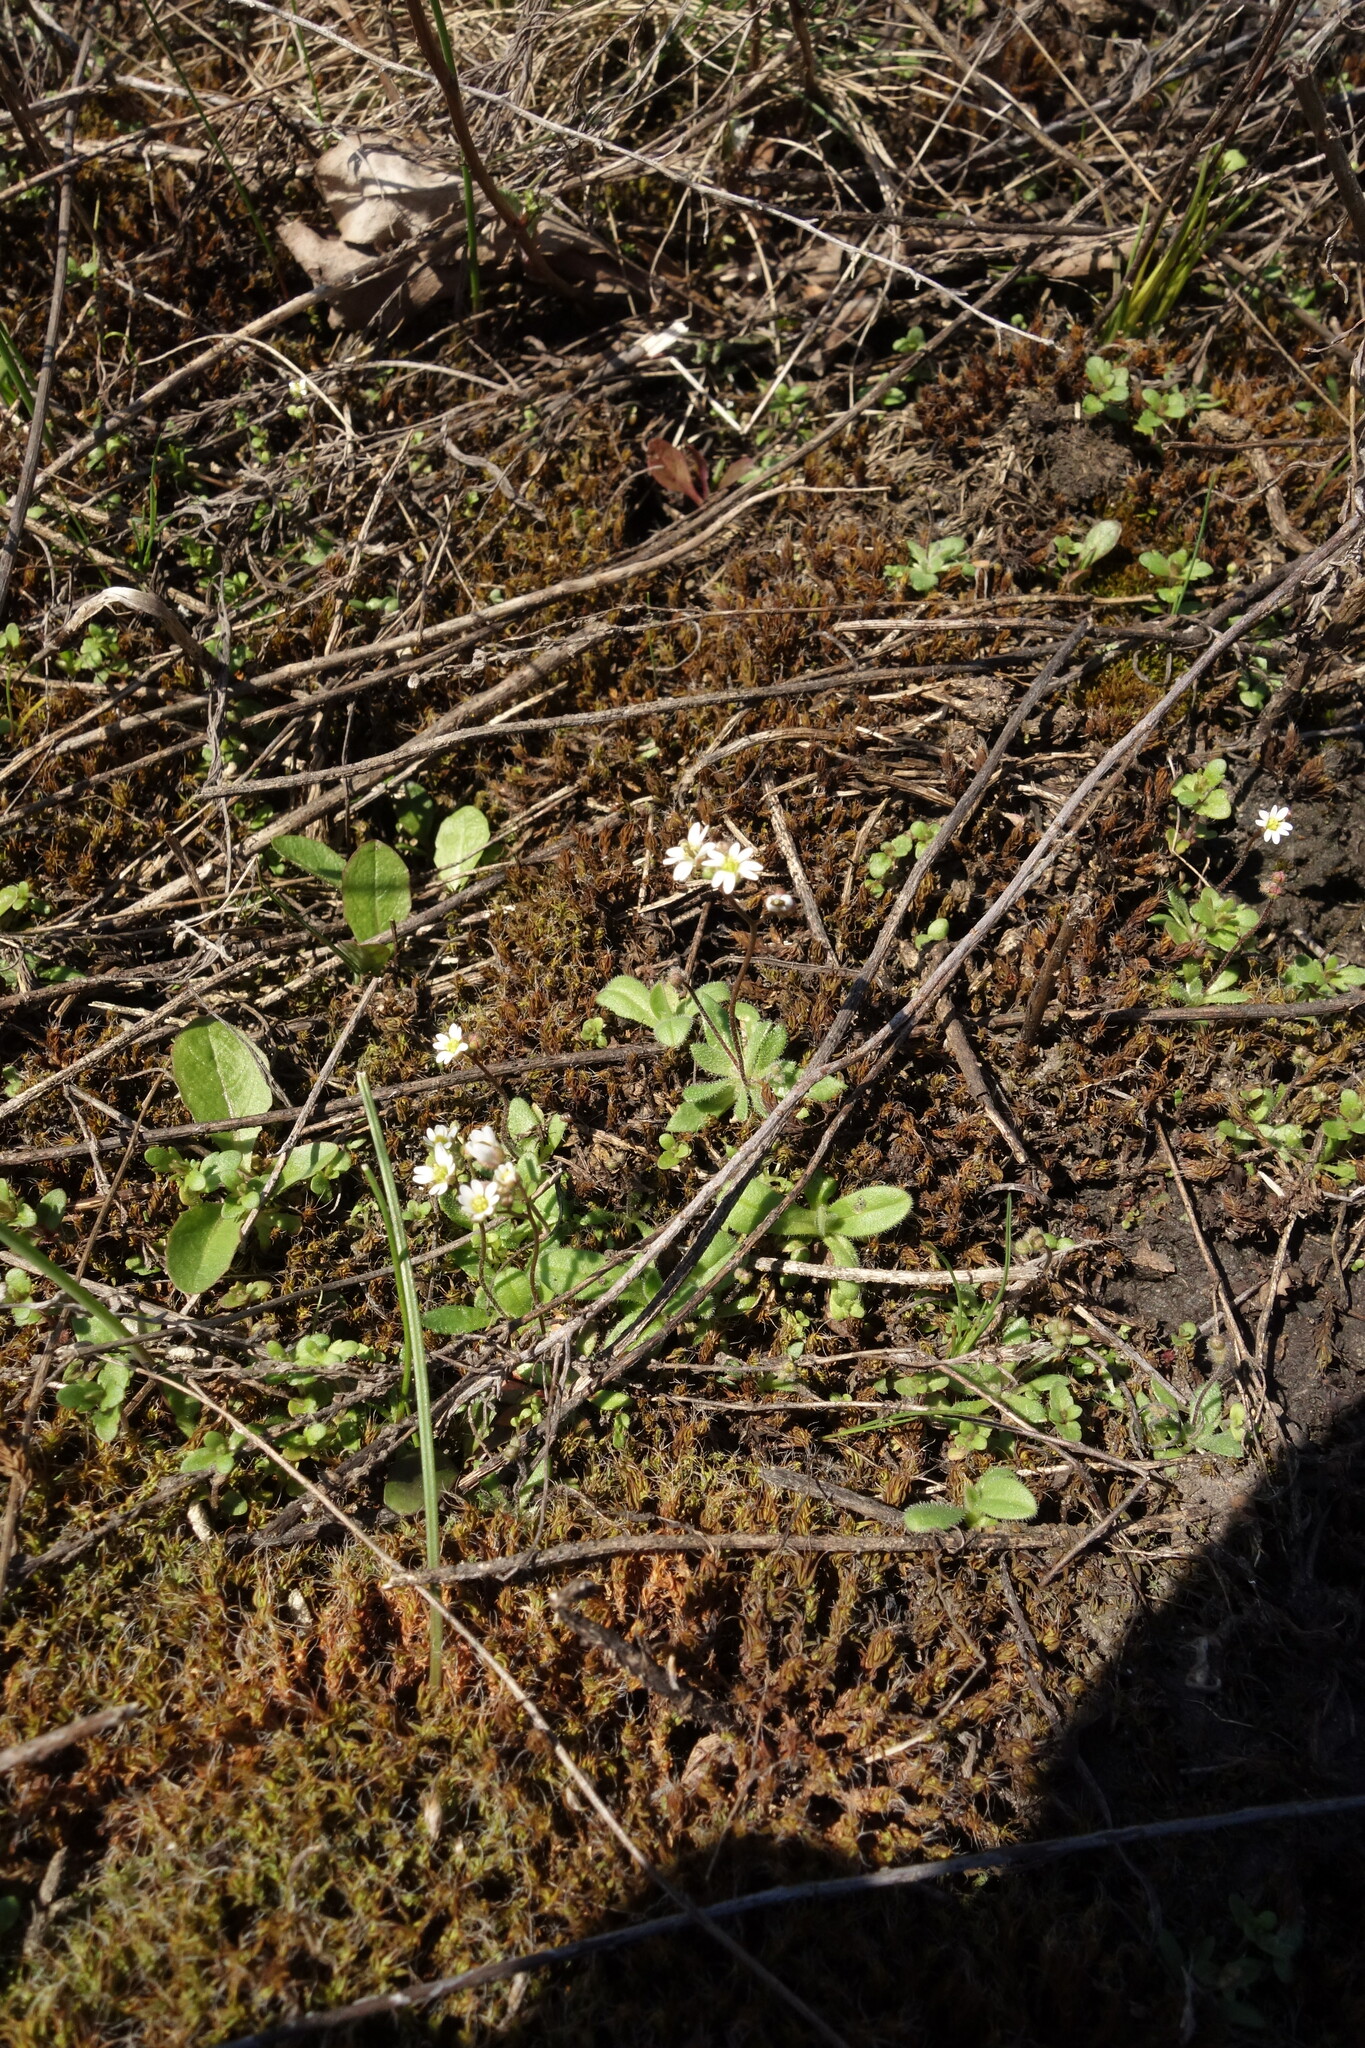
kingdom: Plantae
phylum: Tracheophyta
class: Magnoliopsida
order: Brassicales
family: Brassicaceae
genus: Draba
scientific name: Draba verna
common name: Spring draba
